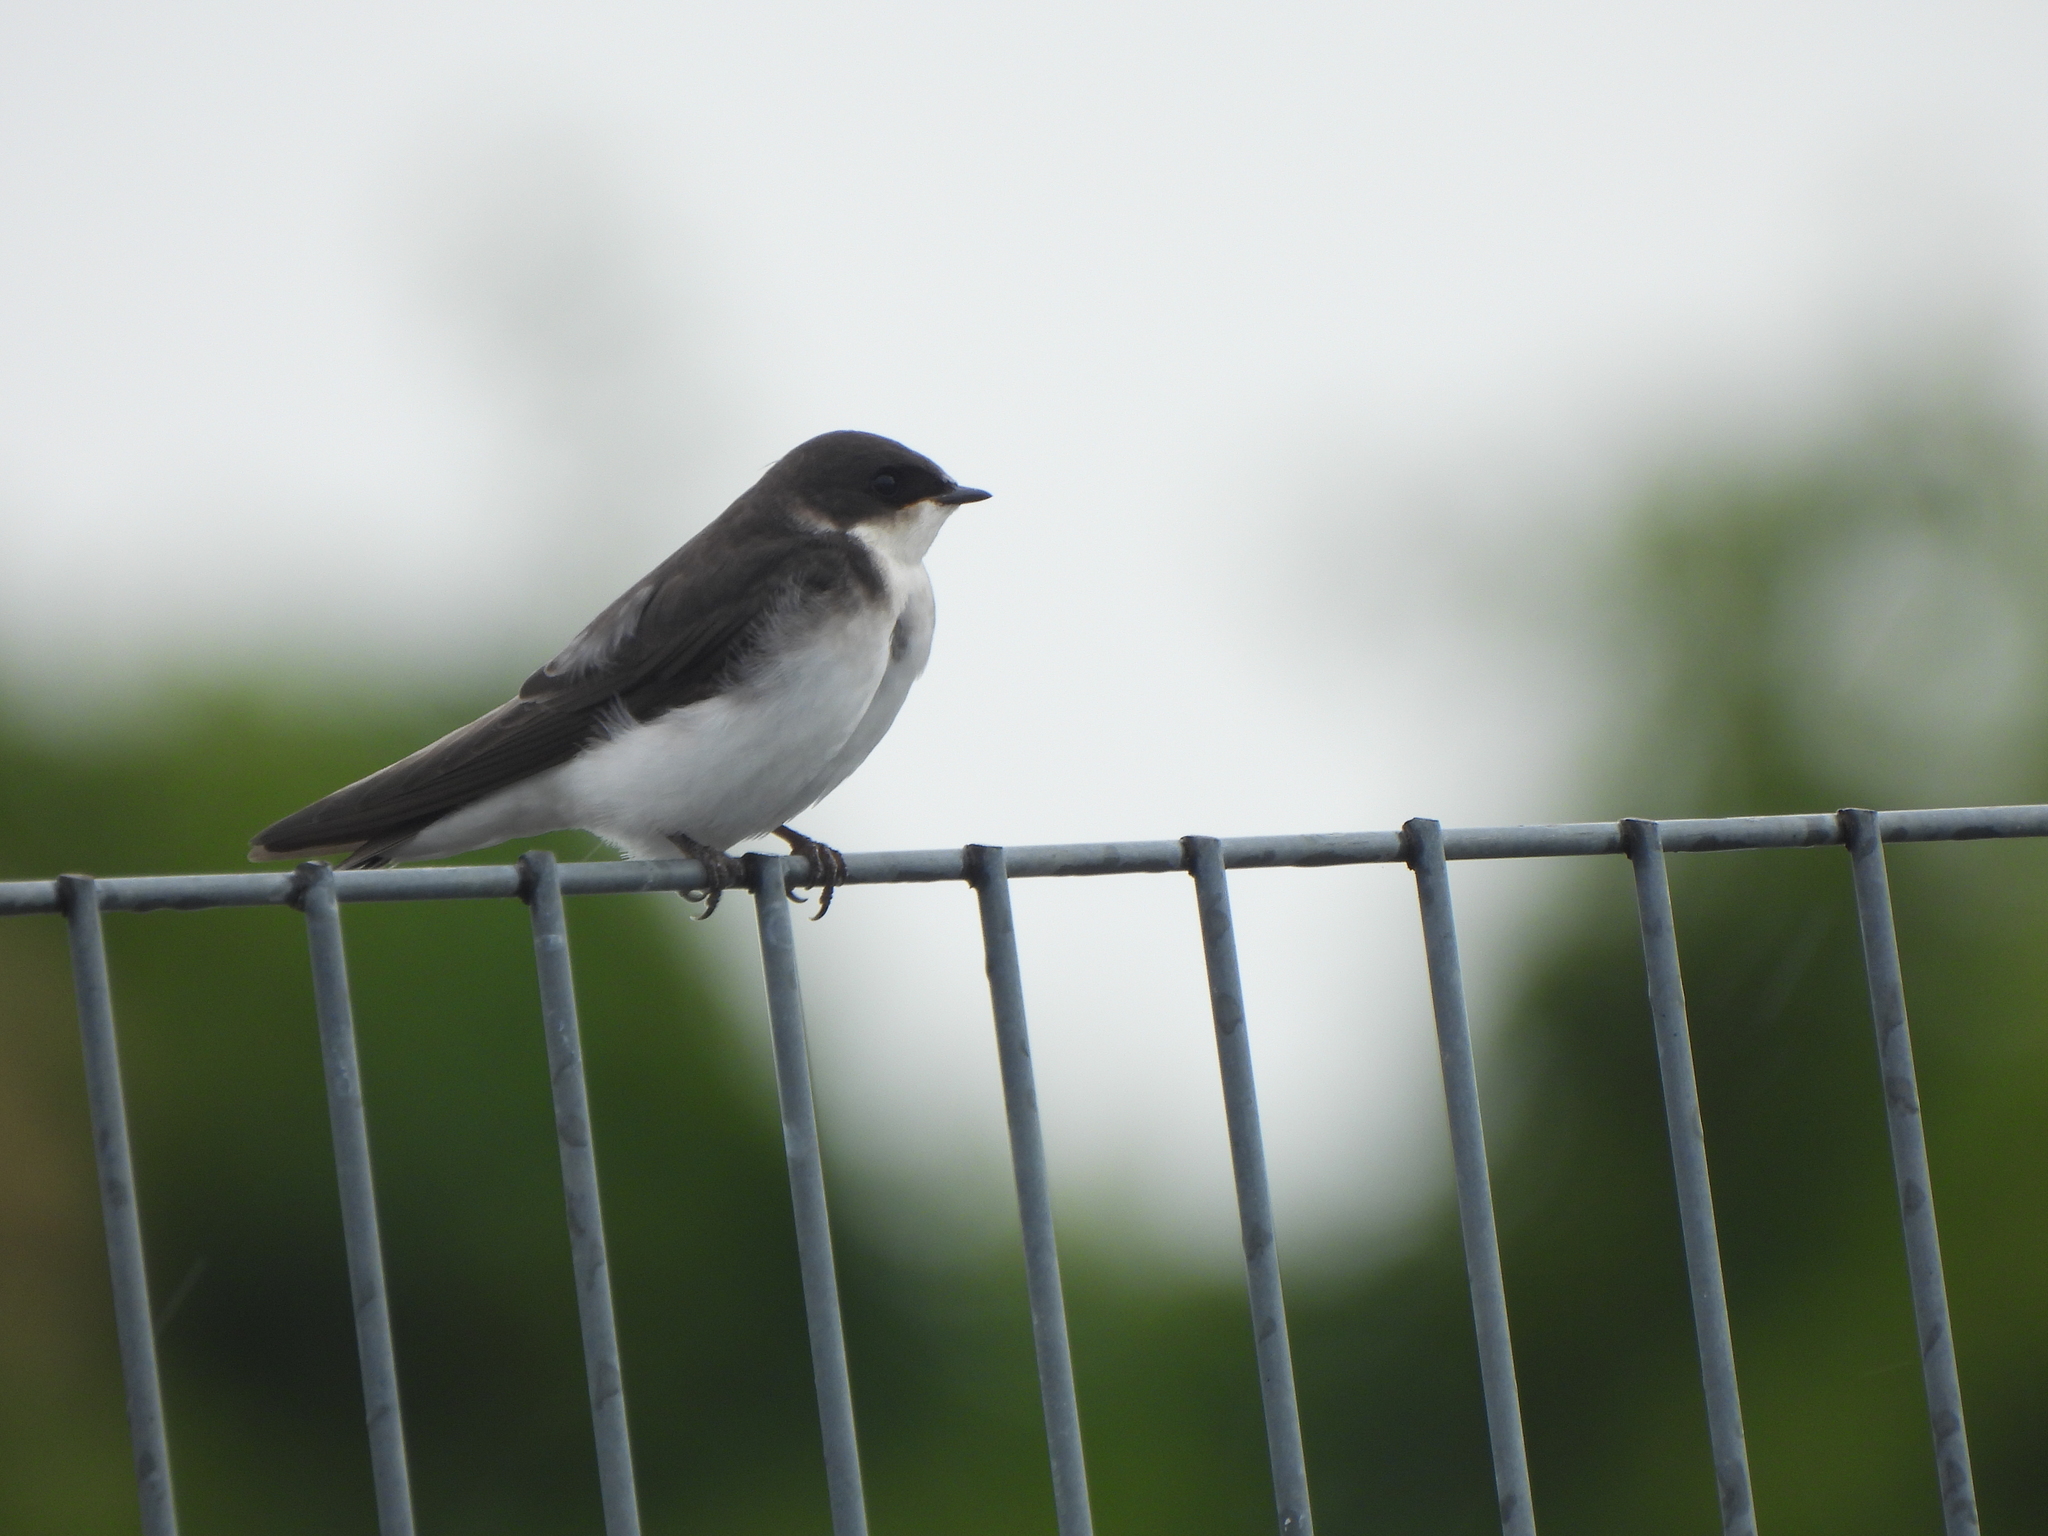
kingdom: Animalia
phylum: Chordata
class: Aves
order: Passeriformes
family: Hirundinidae
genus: Tachycineta
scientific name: Tachycineta bicolor
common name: Tree swallow
